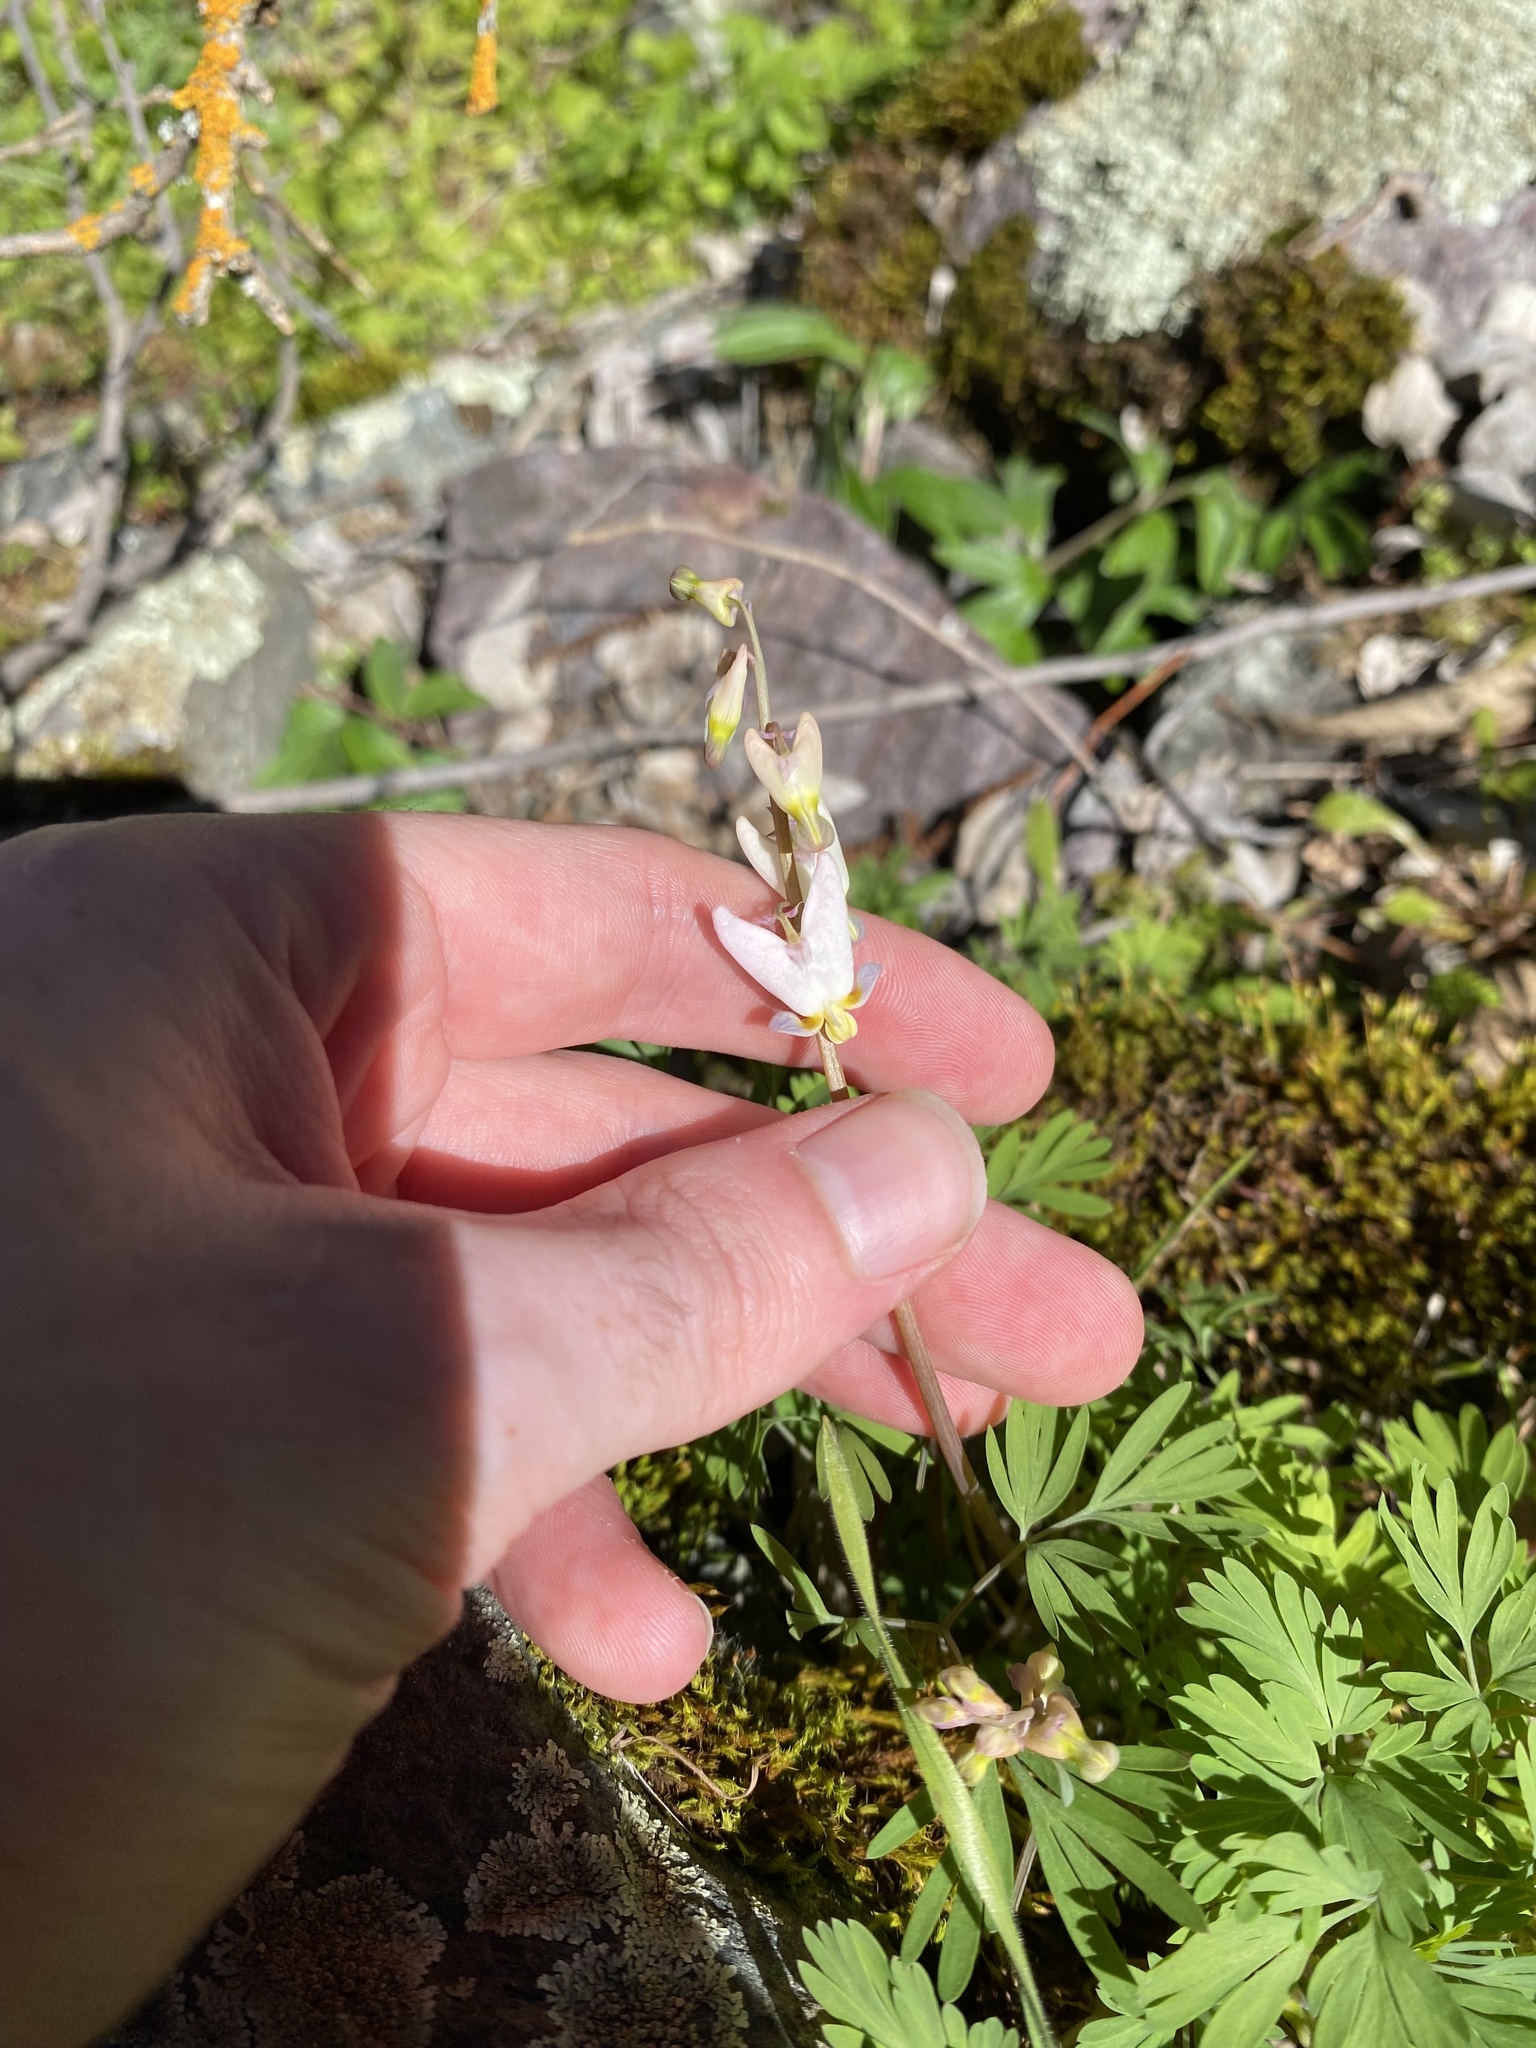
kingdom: Plantae
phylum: Tracheophyta
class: Magnoliopsida
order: Ranunculales
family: Papaveraceae
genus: Dicentra
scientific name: Dicentra cucullaria
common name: Dutchman's breeches
